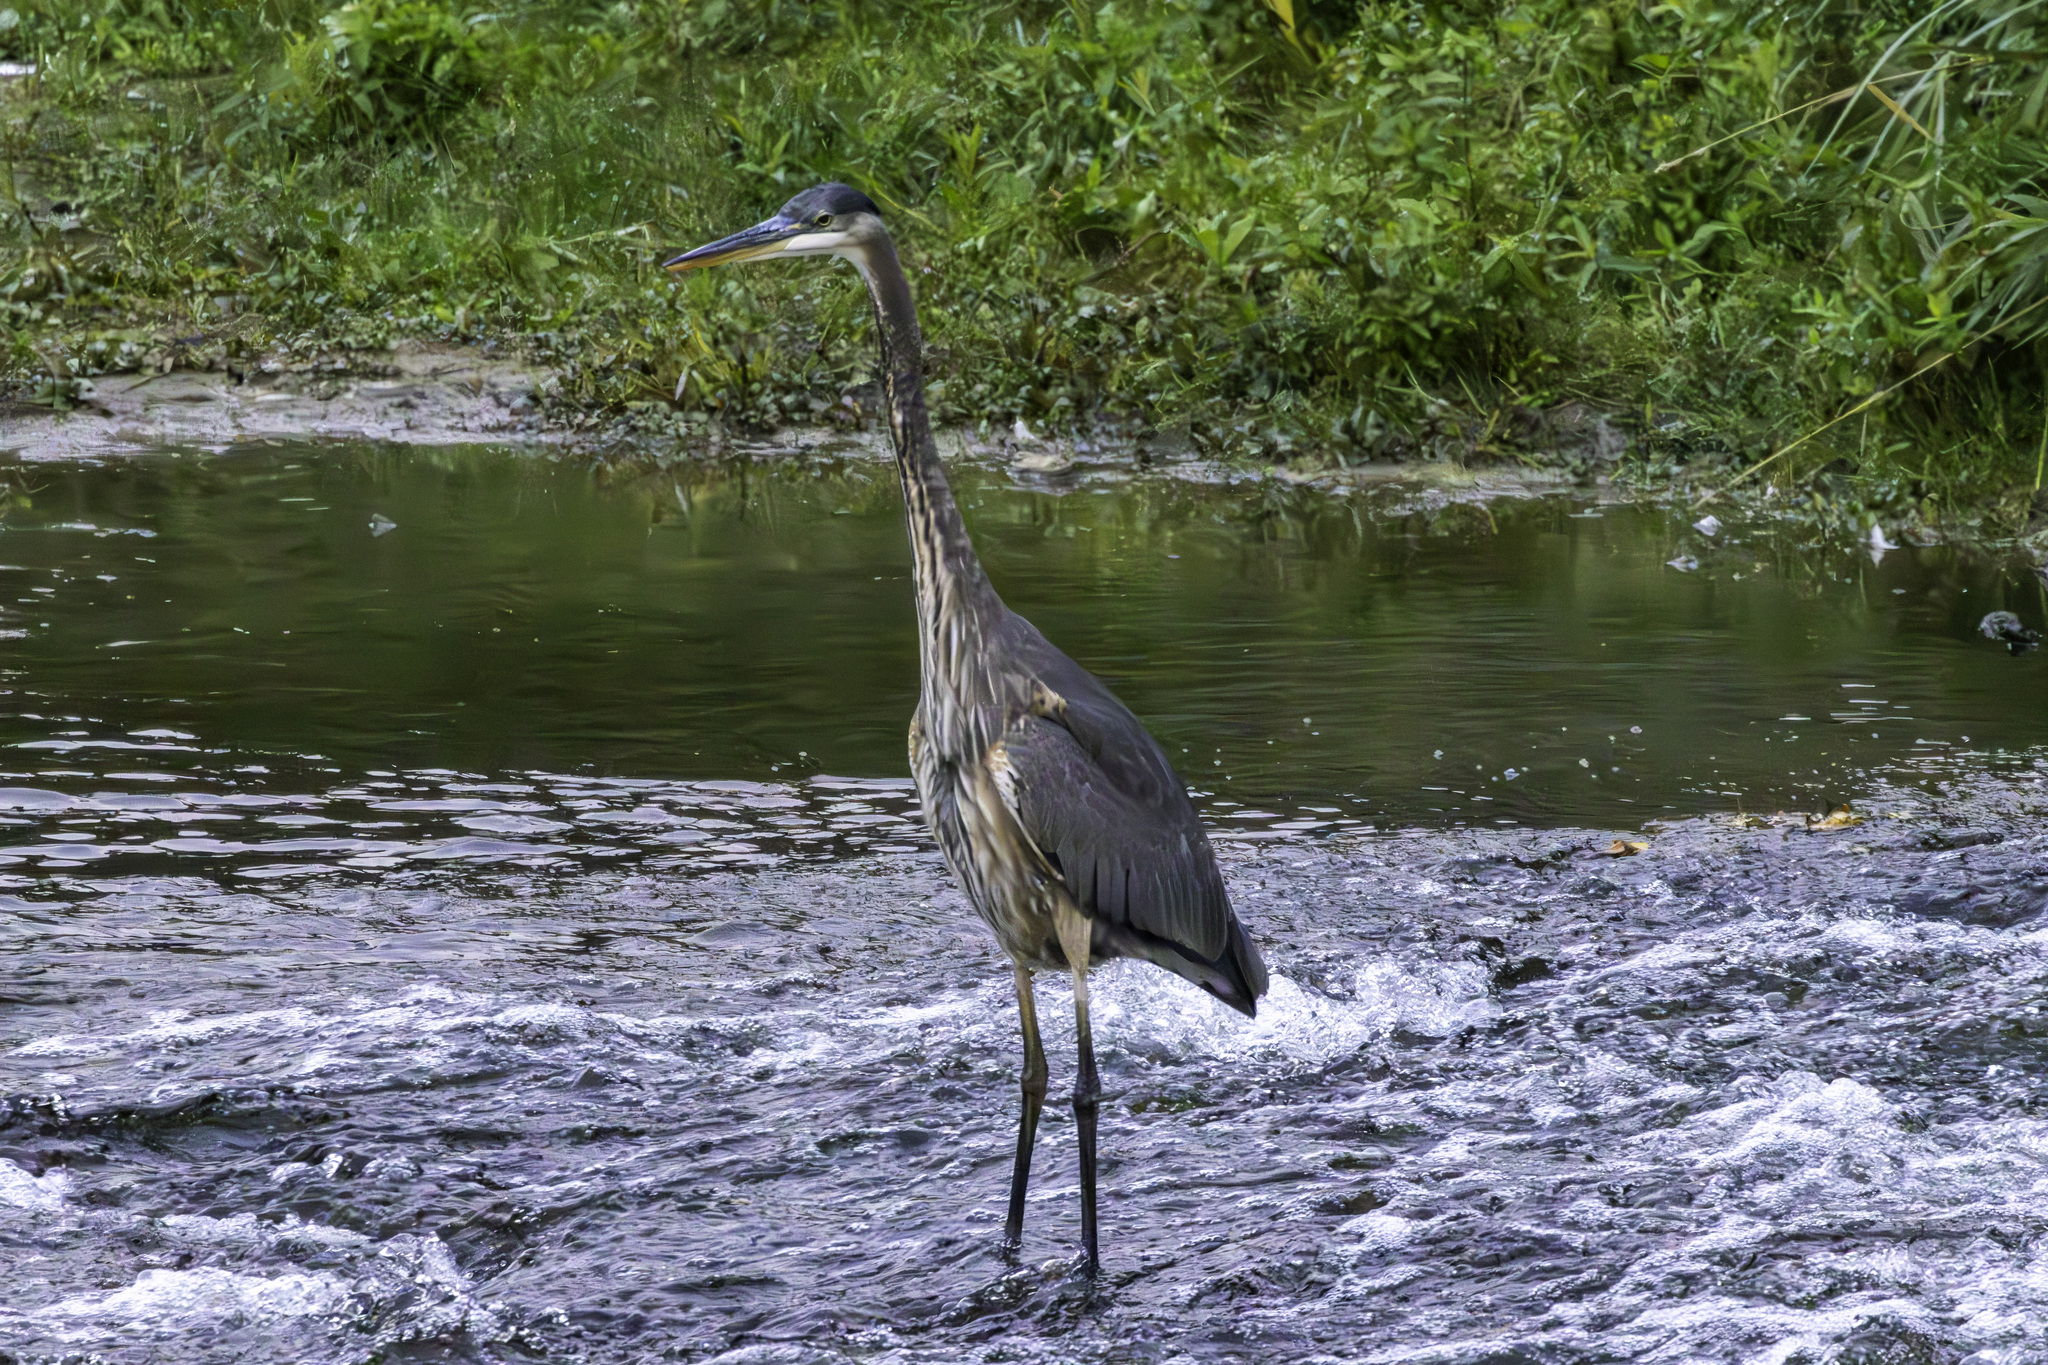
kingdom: Animalia
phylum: Chordata
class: Aves
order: Pelecaniformes
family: Ardeidae
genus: Ardea
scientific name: Ardea herodias
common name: Great blue heron
